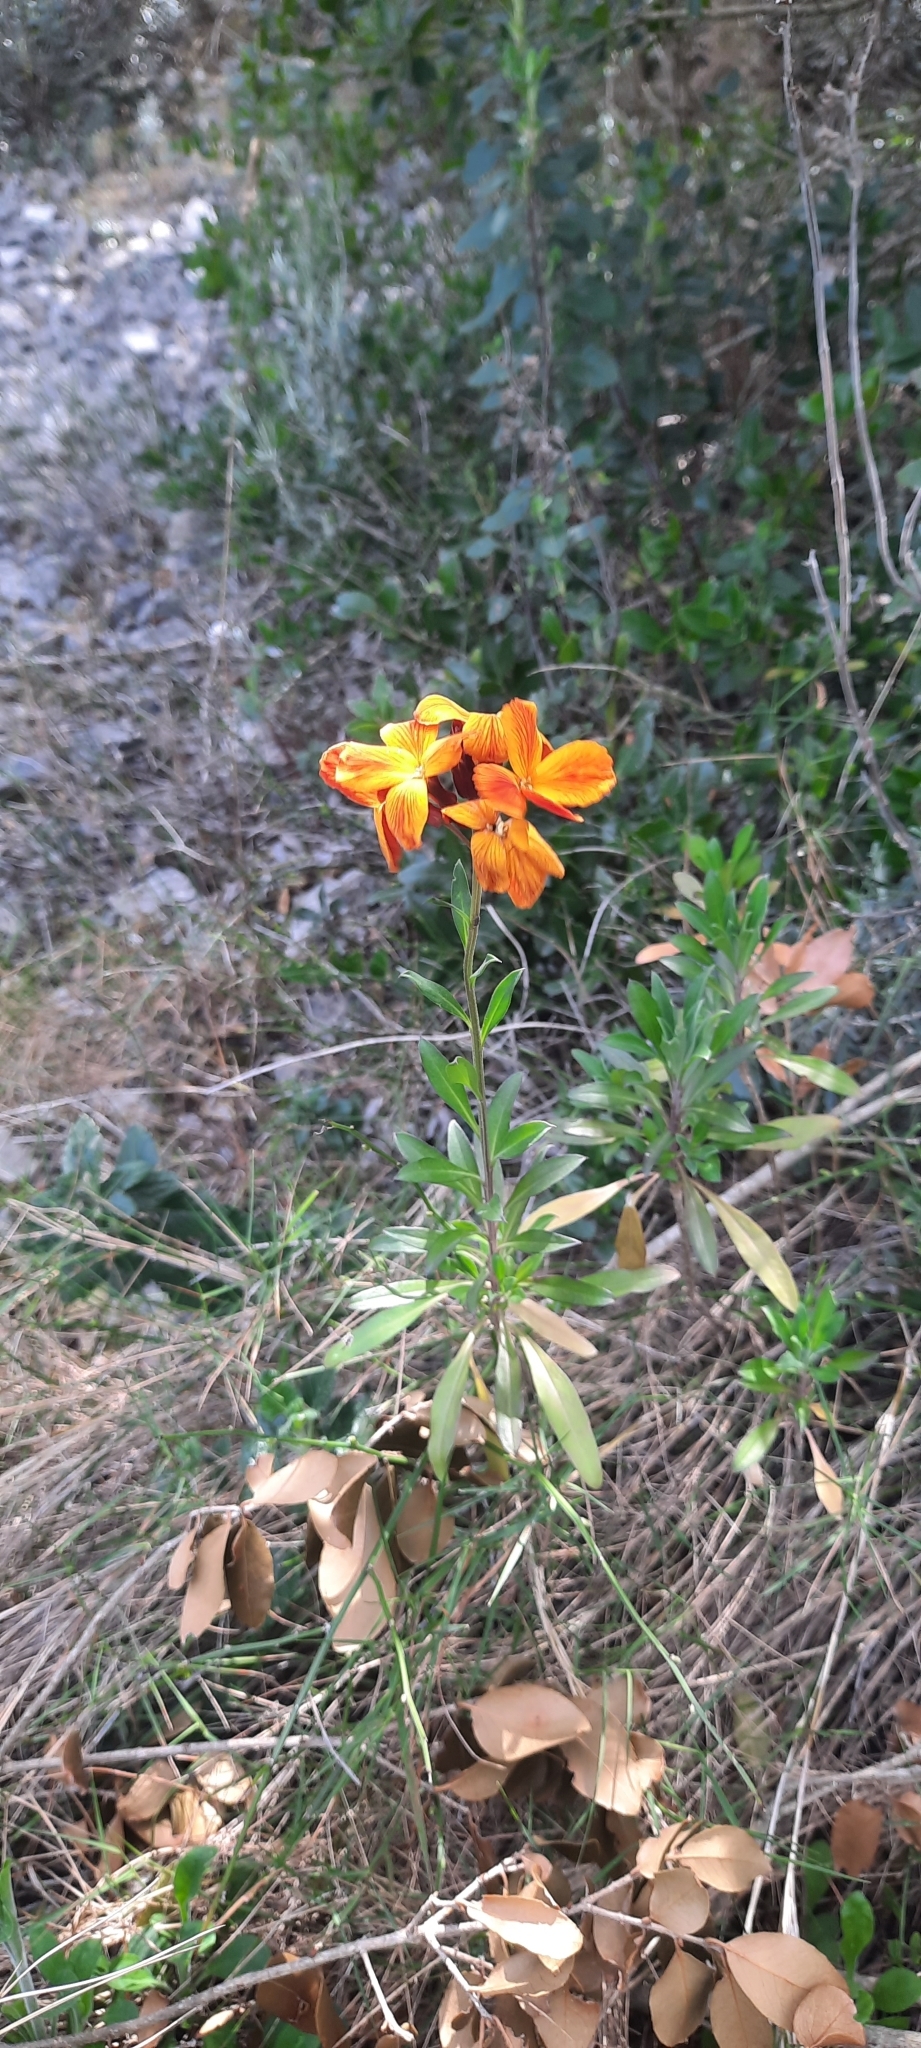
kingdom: Plantae
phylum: Tracheophyta
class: Magnoliopsida
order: Brassicales
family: Brassicaceae
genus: Erysimum
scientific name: Erysimum cheiri
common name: Wallflower
